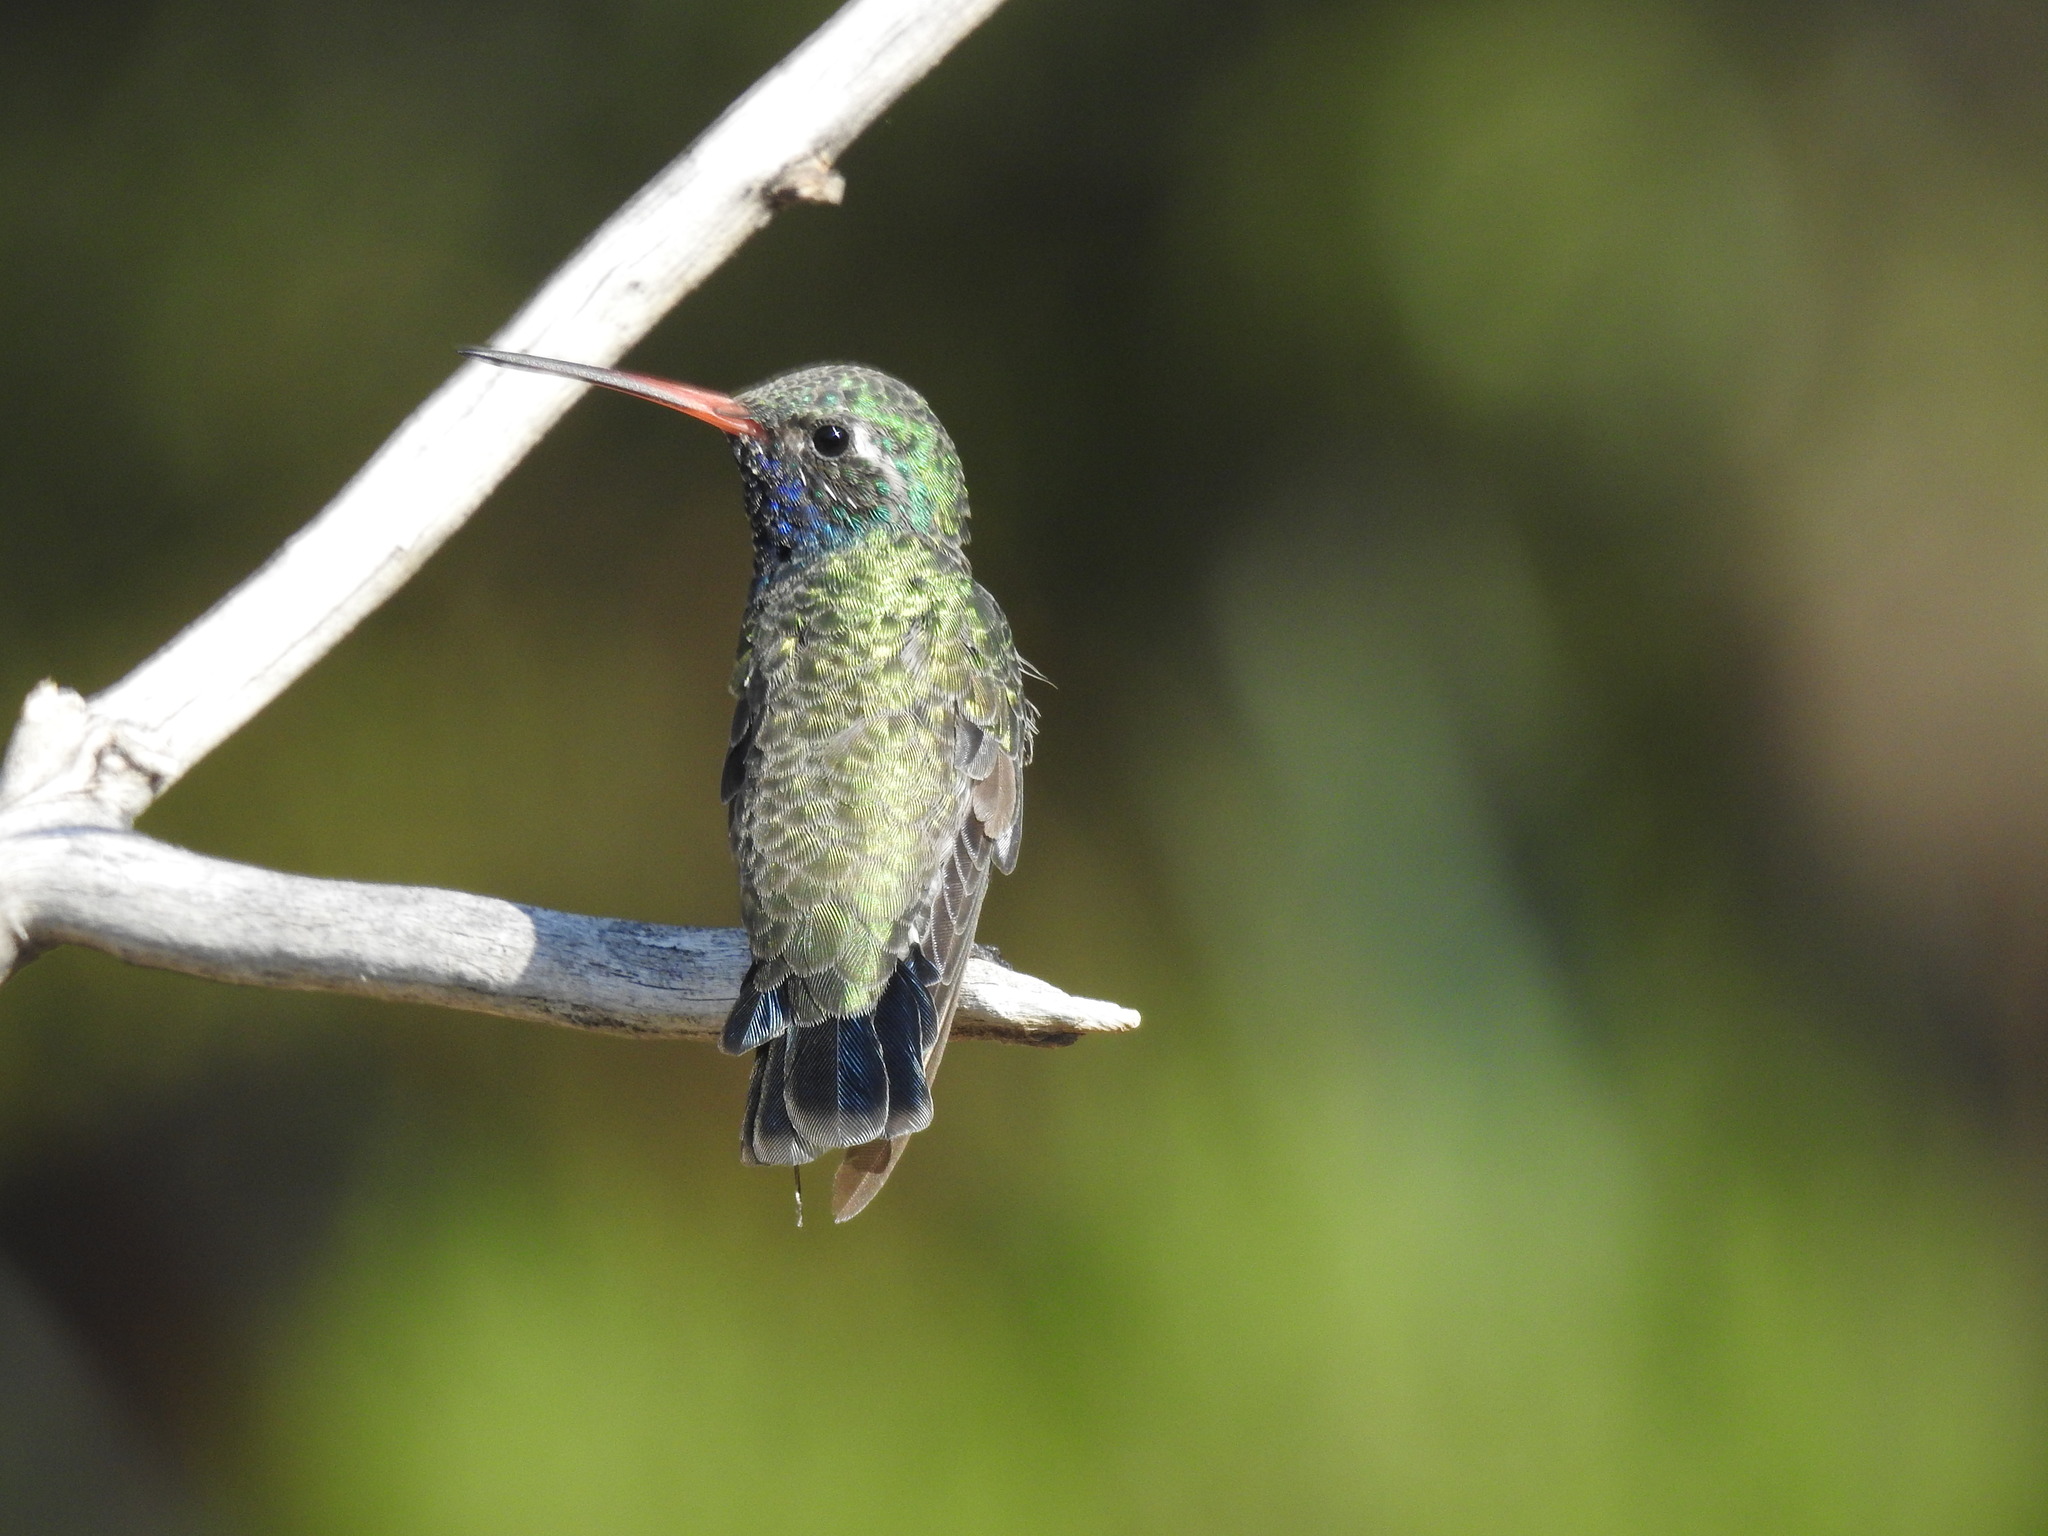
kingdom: Animalia
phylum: Chordata
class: Aves
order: Apodiformes
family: Trochilidae
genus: Cynanthus
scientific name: Cynanthus latirostris
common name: Broad-billed hummingbird
